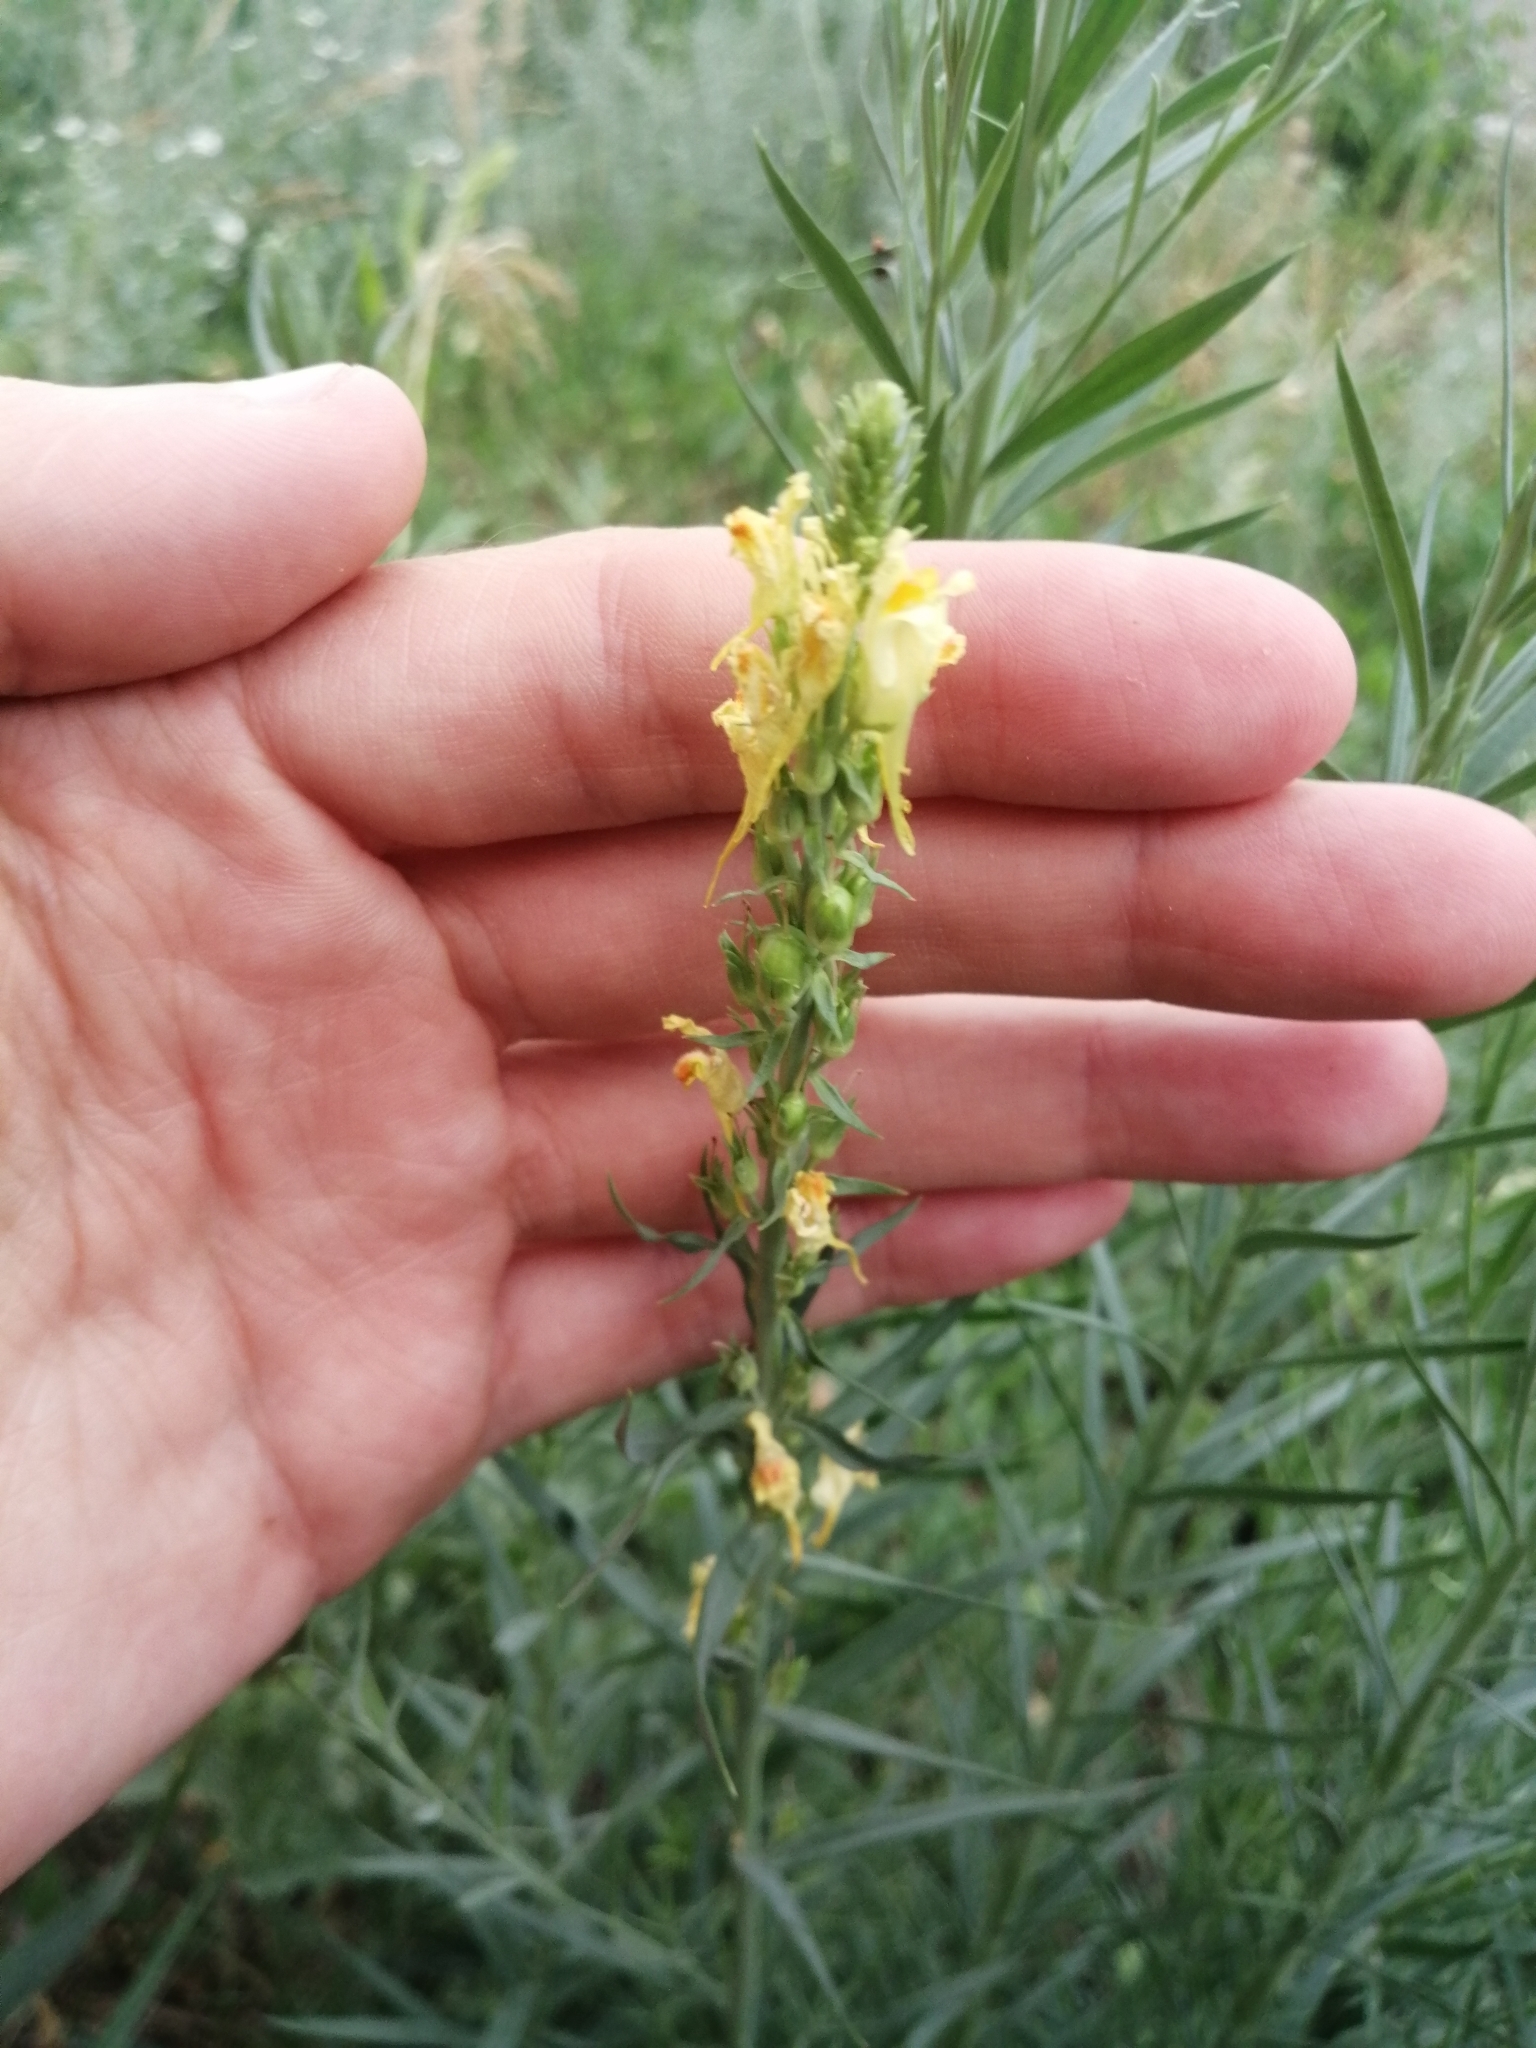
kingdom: Plantae
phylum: Tracheophyta
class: Magnoliopsida
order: Lamiales
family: Plantaginaceae
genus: Linaria
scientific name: Linaria biebersteinii
